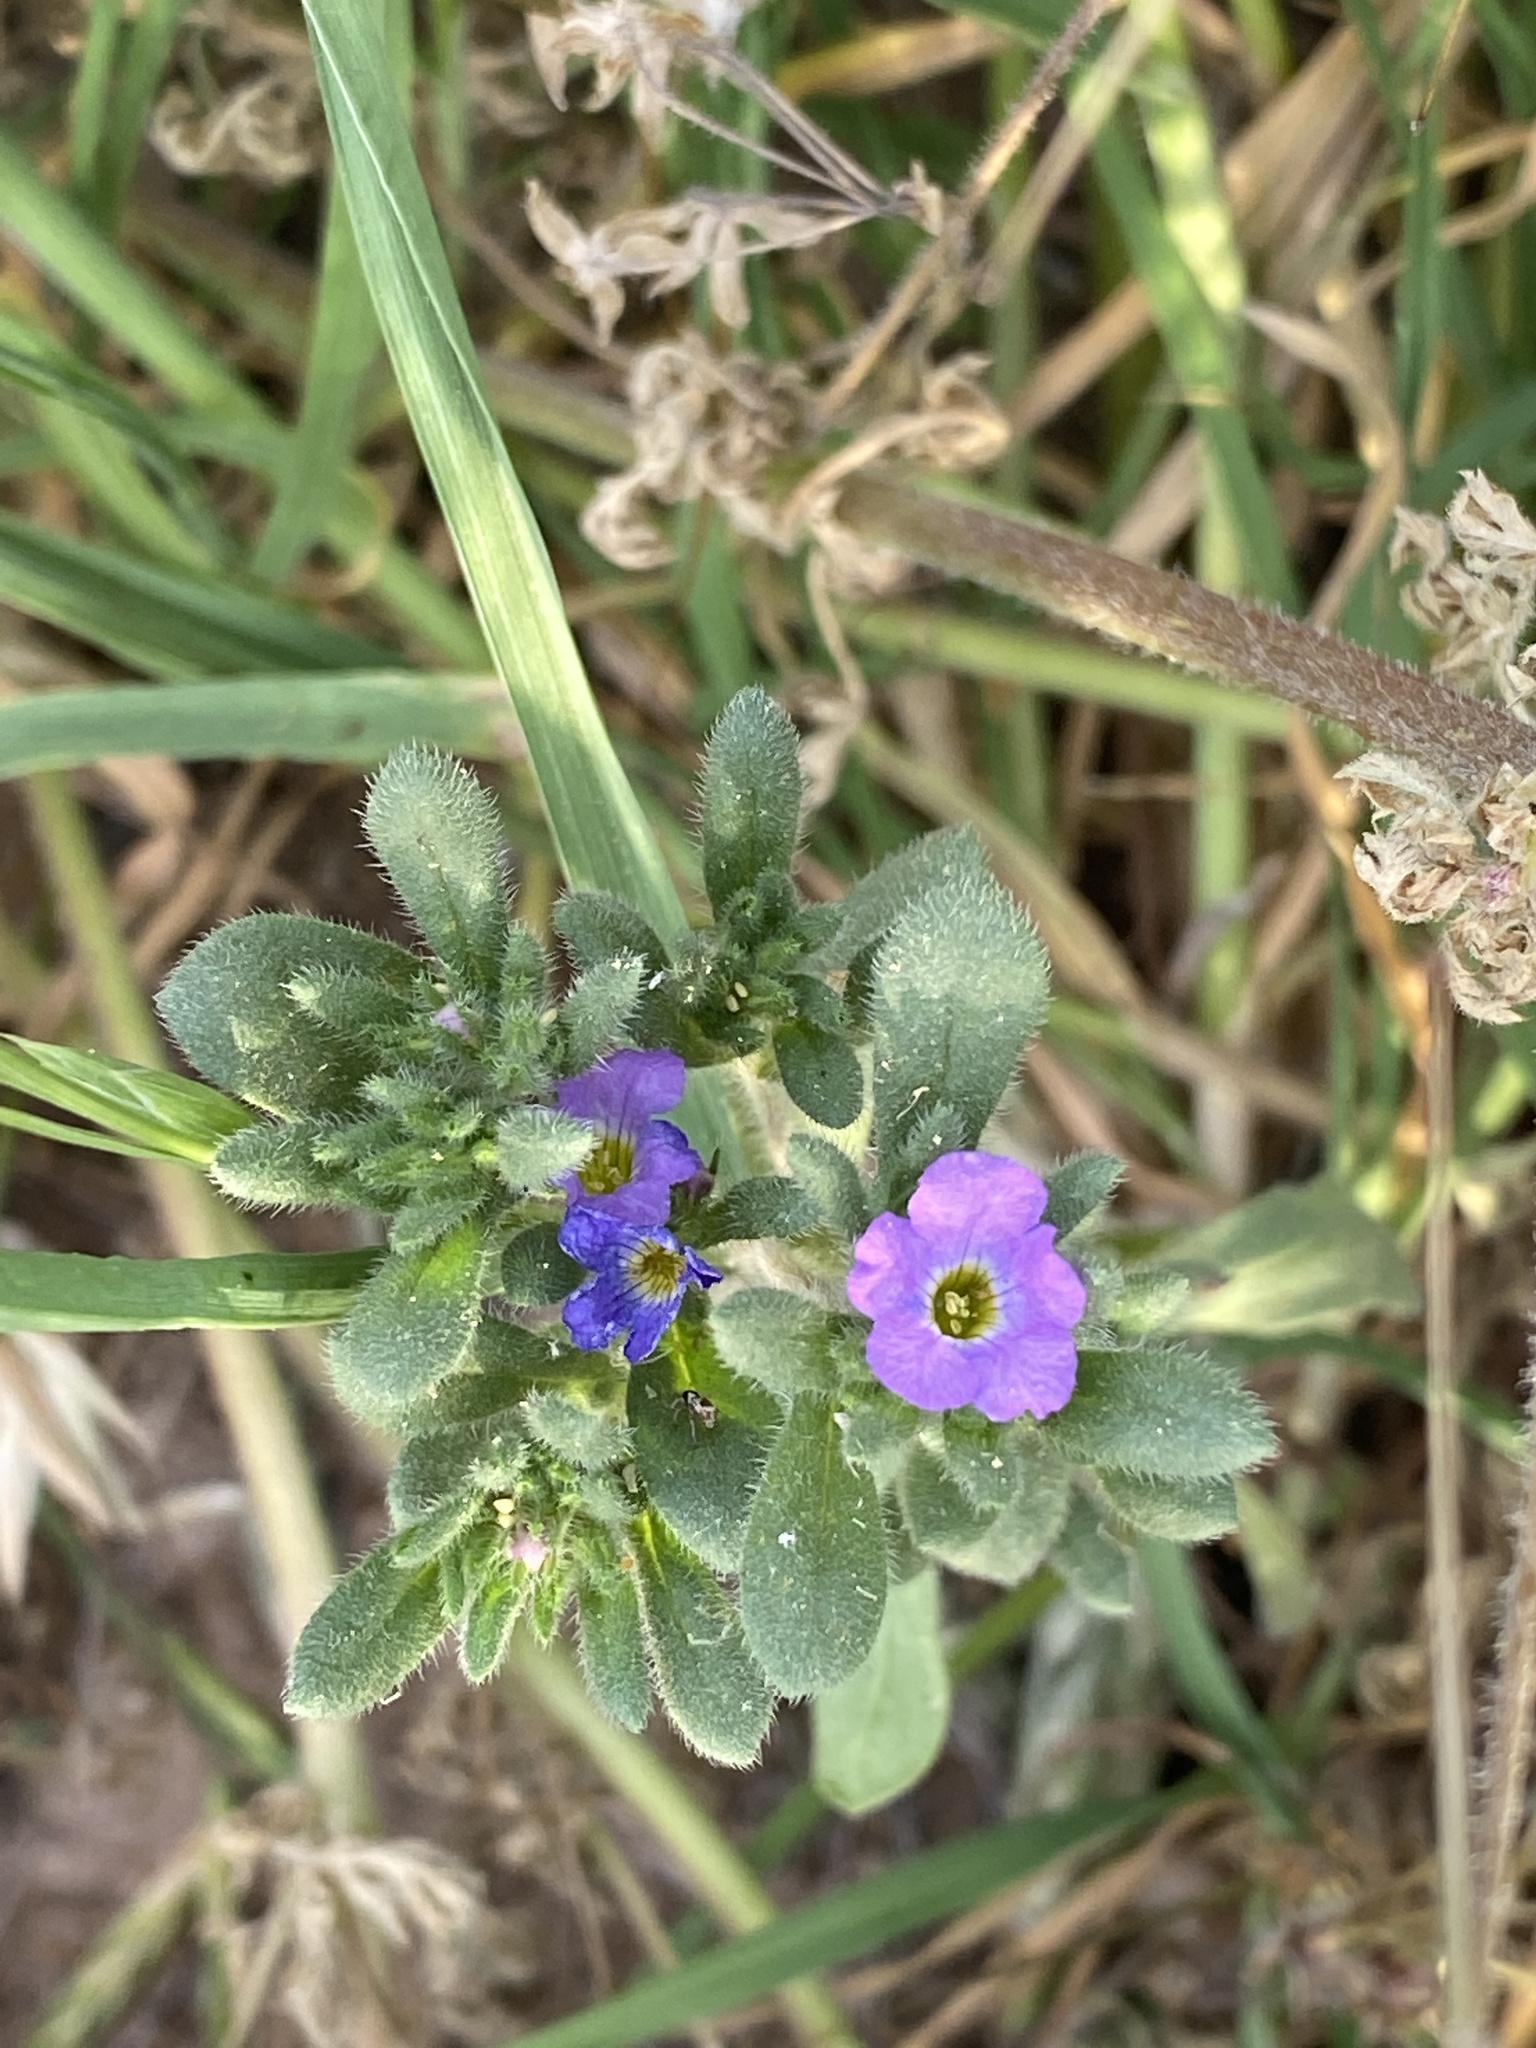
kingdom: Plantae
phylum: Tracheophyta
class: Magnoliopsida
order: Boraginales
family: Namaceae
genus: Nama
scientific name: Nama hispida
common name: Bristly nama
